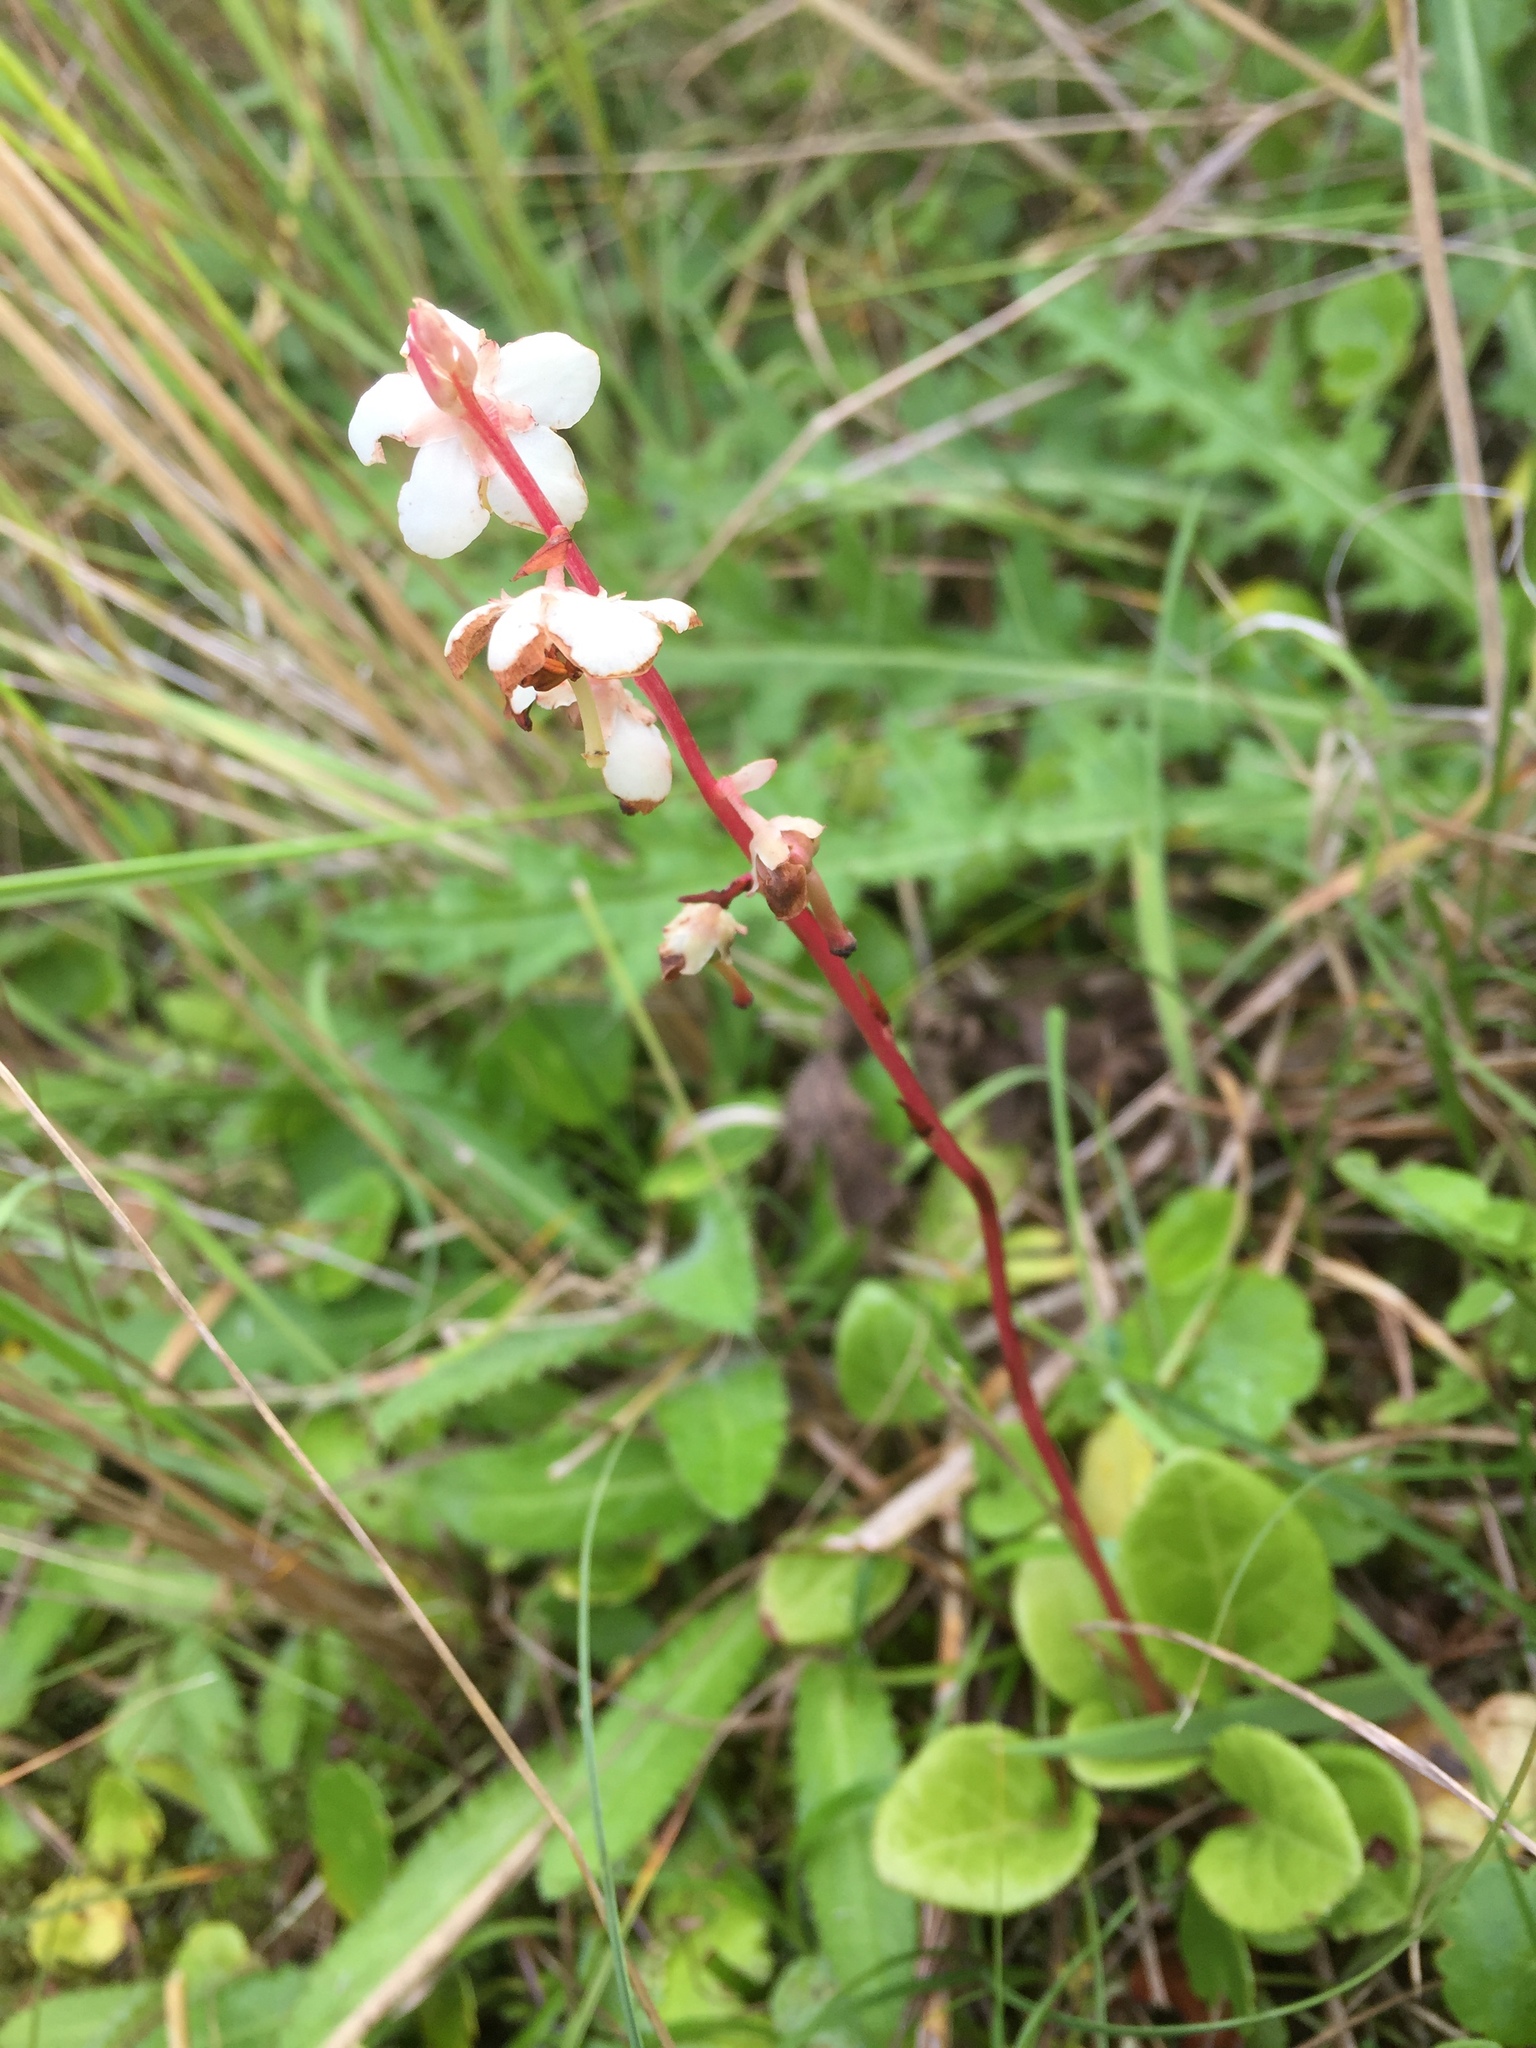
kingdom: Plantae
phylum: Tracheophyta
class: Magnoliopsida
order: Ericales
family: Ericaceae
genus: Pyrola
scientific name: Pyrola rotundifolia
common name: Round-leaved wintergreen
